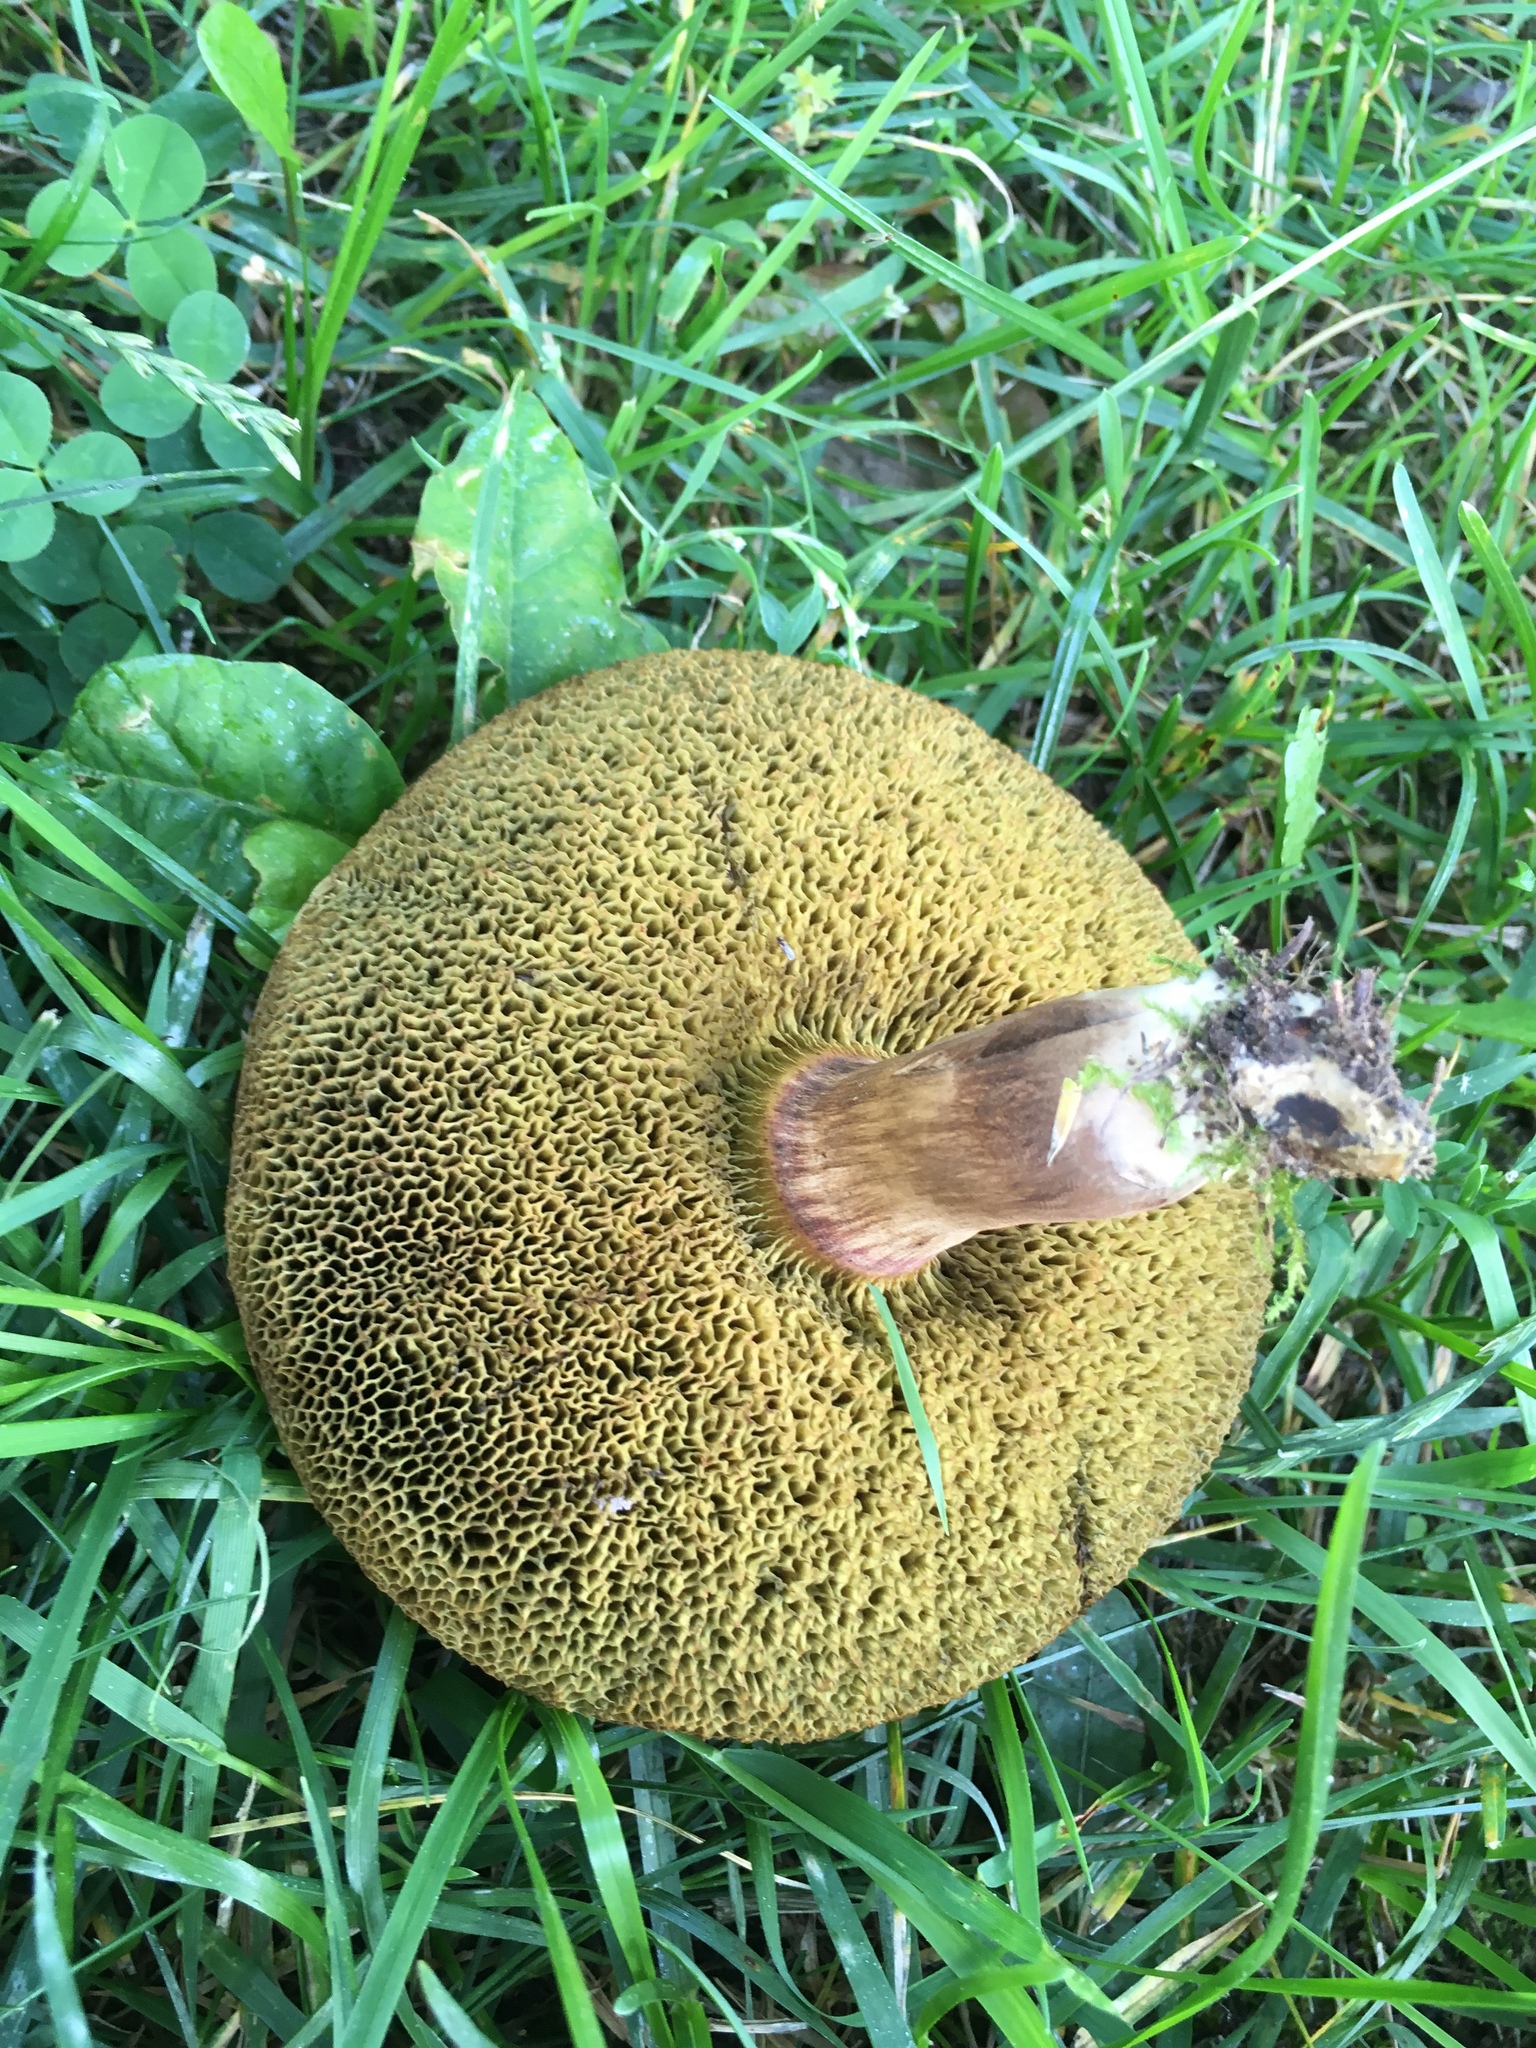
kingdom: Fungi
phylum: Basidiomycota
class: Agaricomycetes
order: Boletales
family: Boletaceae
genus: Xerocomellus
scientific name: Xerocomellus chrysenteron
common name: Red-cracking bolete
